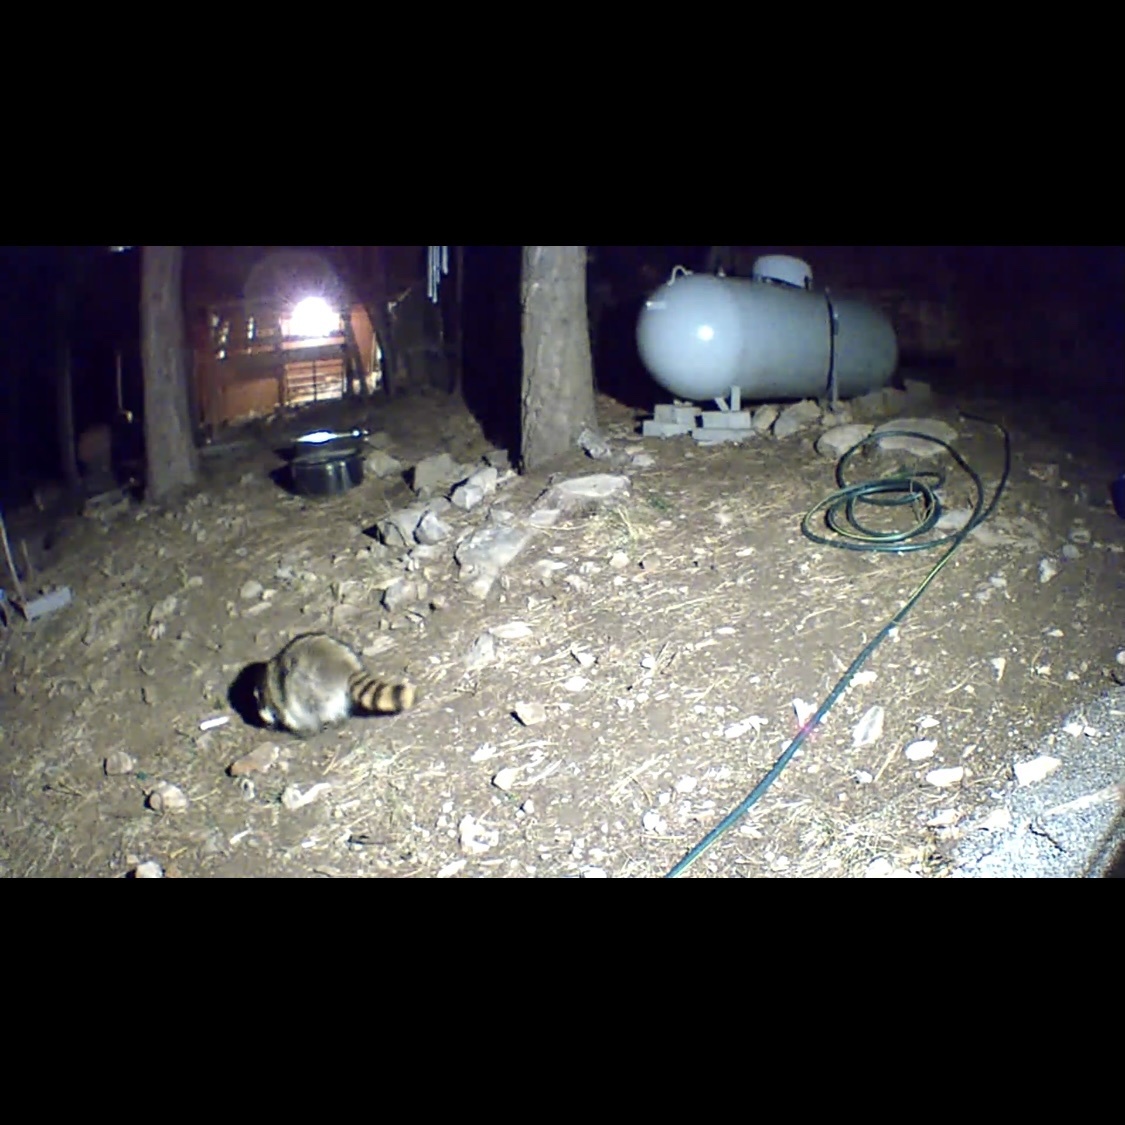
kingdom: Animalia
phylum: Chordata
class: Mammalia
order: Carnivora
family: Procyonidae
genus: Procyon
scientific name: Procyon lotor
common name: Raccoon
